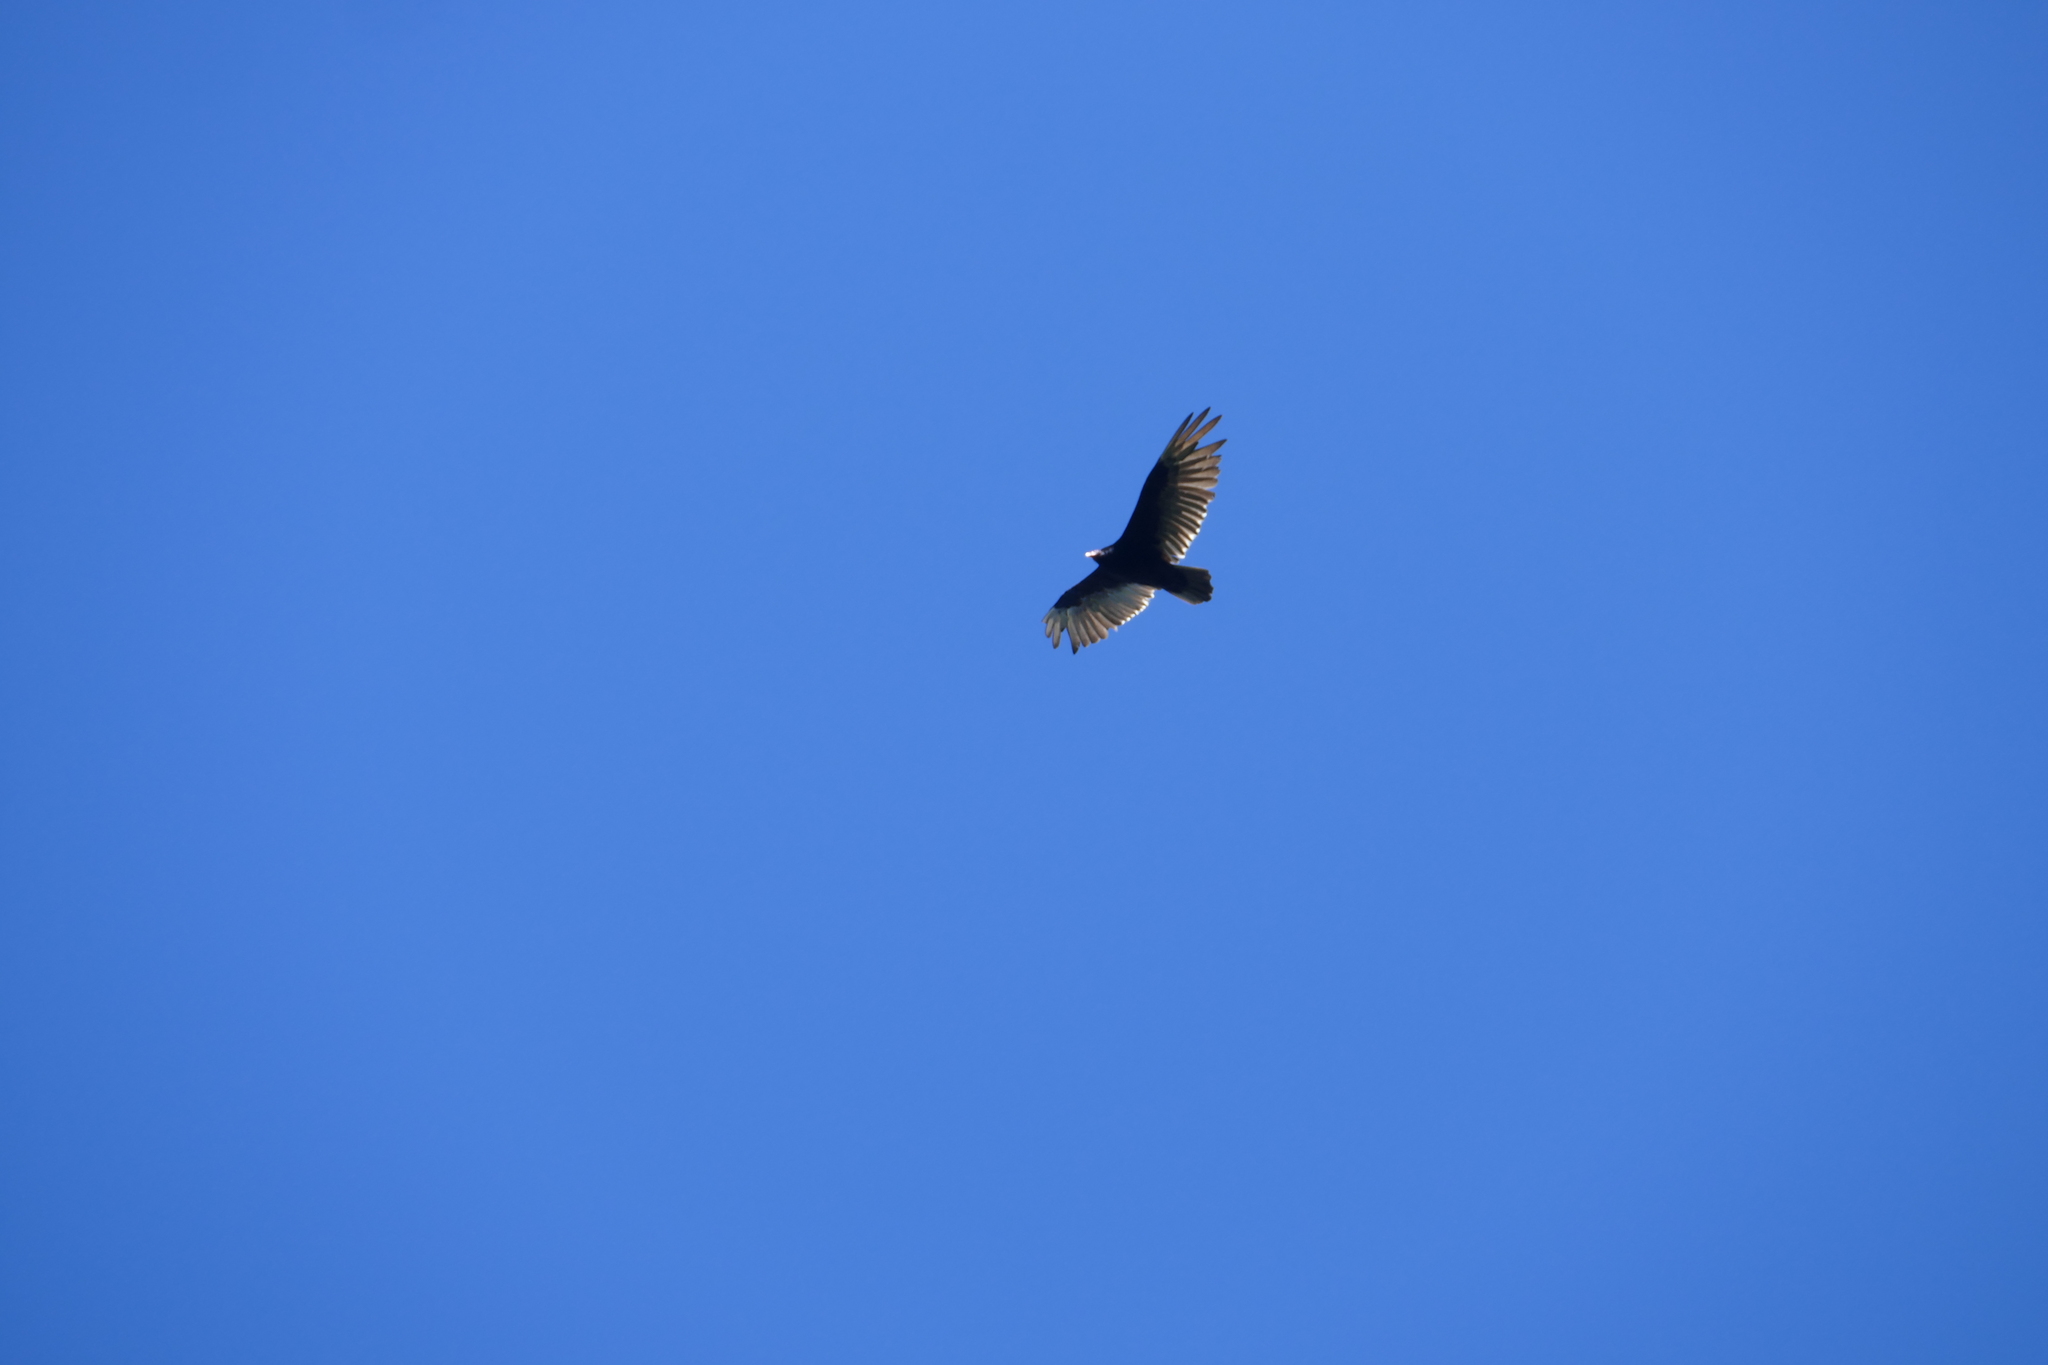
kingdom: Animalia
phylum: Chordata
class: Aves
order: Accipitriformes
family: Cathartidae
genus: Cathartes
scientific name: Cathartes aura
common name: Turkey vulture
